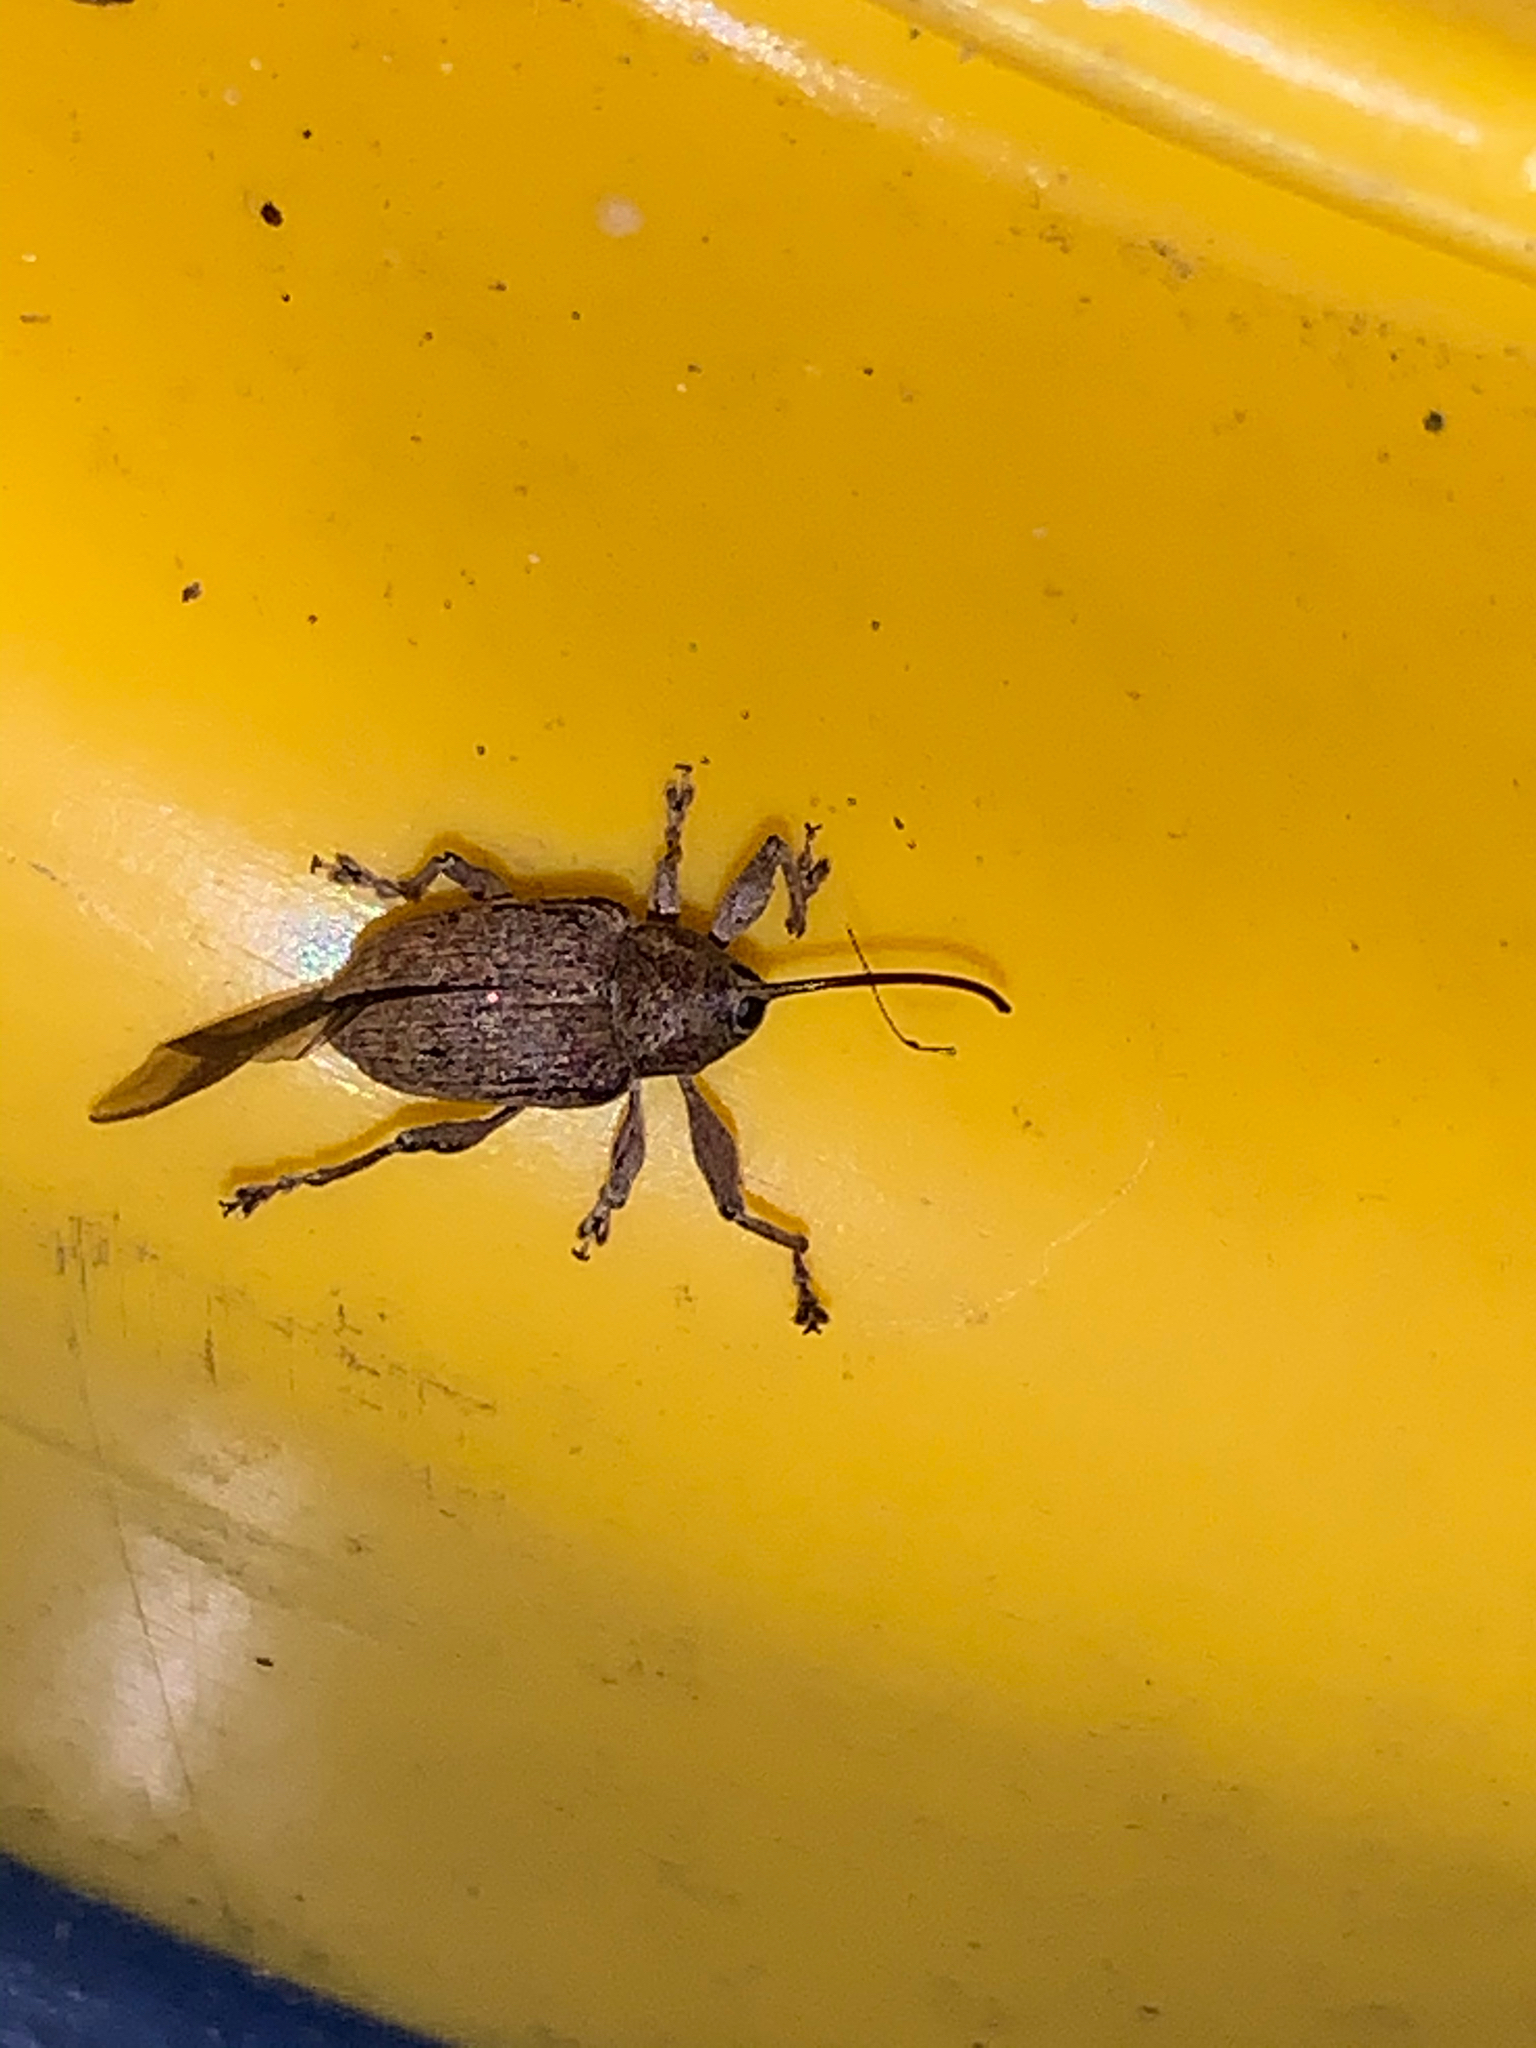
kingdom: Animalia
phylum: Arthropoda
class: Insecta
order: Coleoptera
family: Curculionidae
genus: Curculio
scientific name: Curculio
